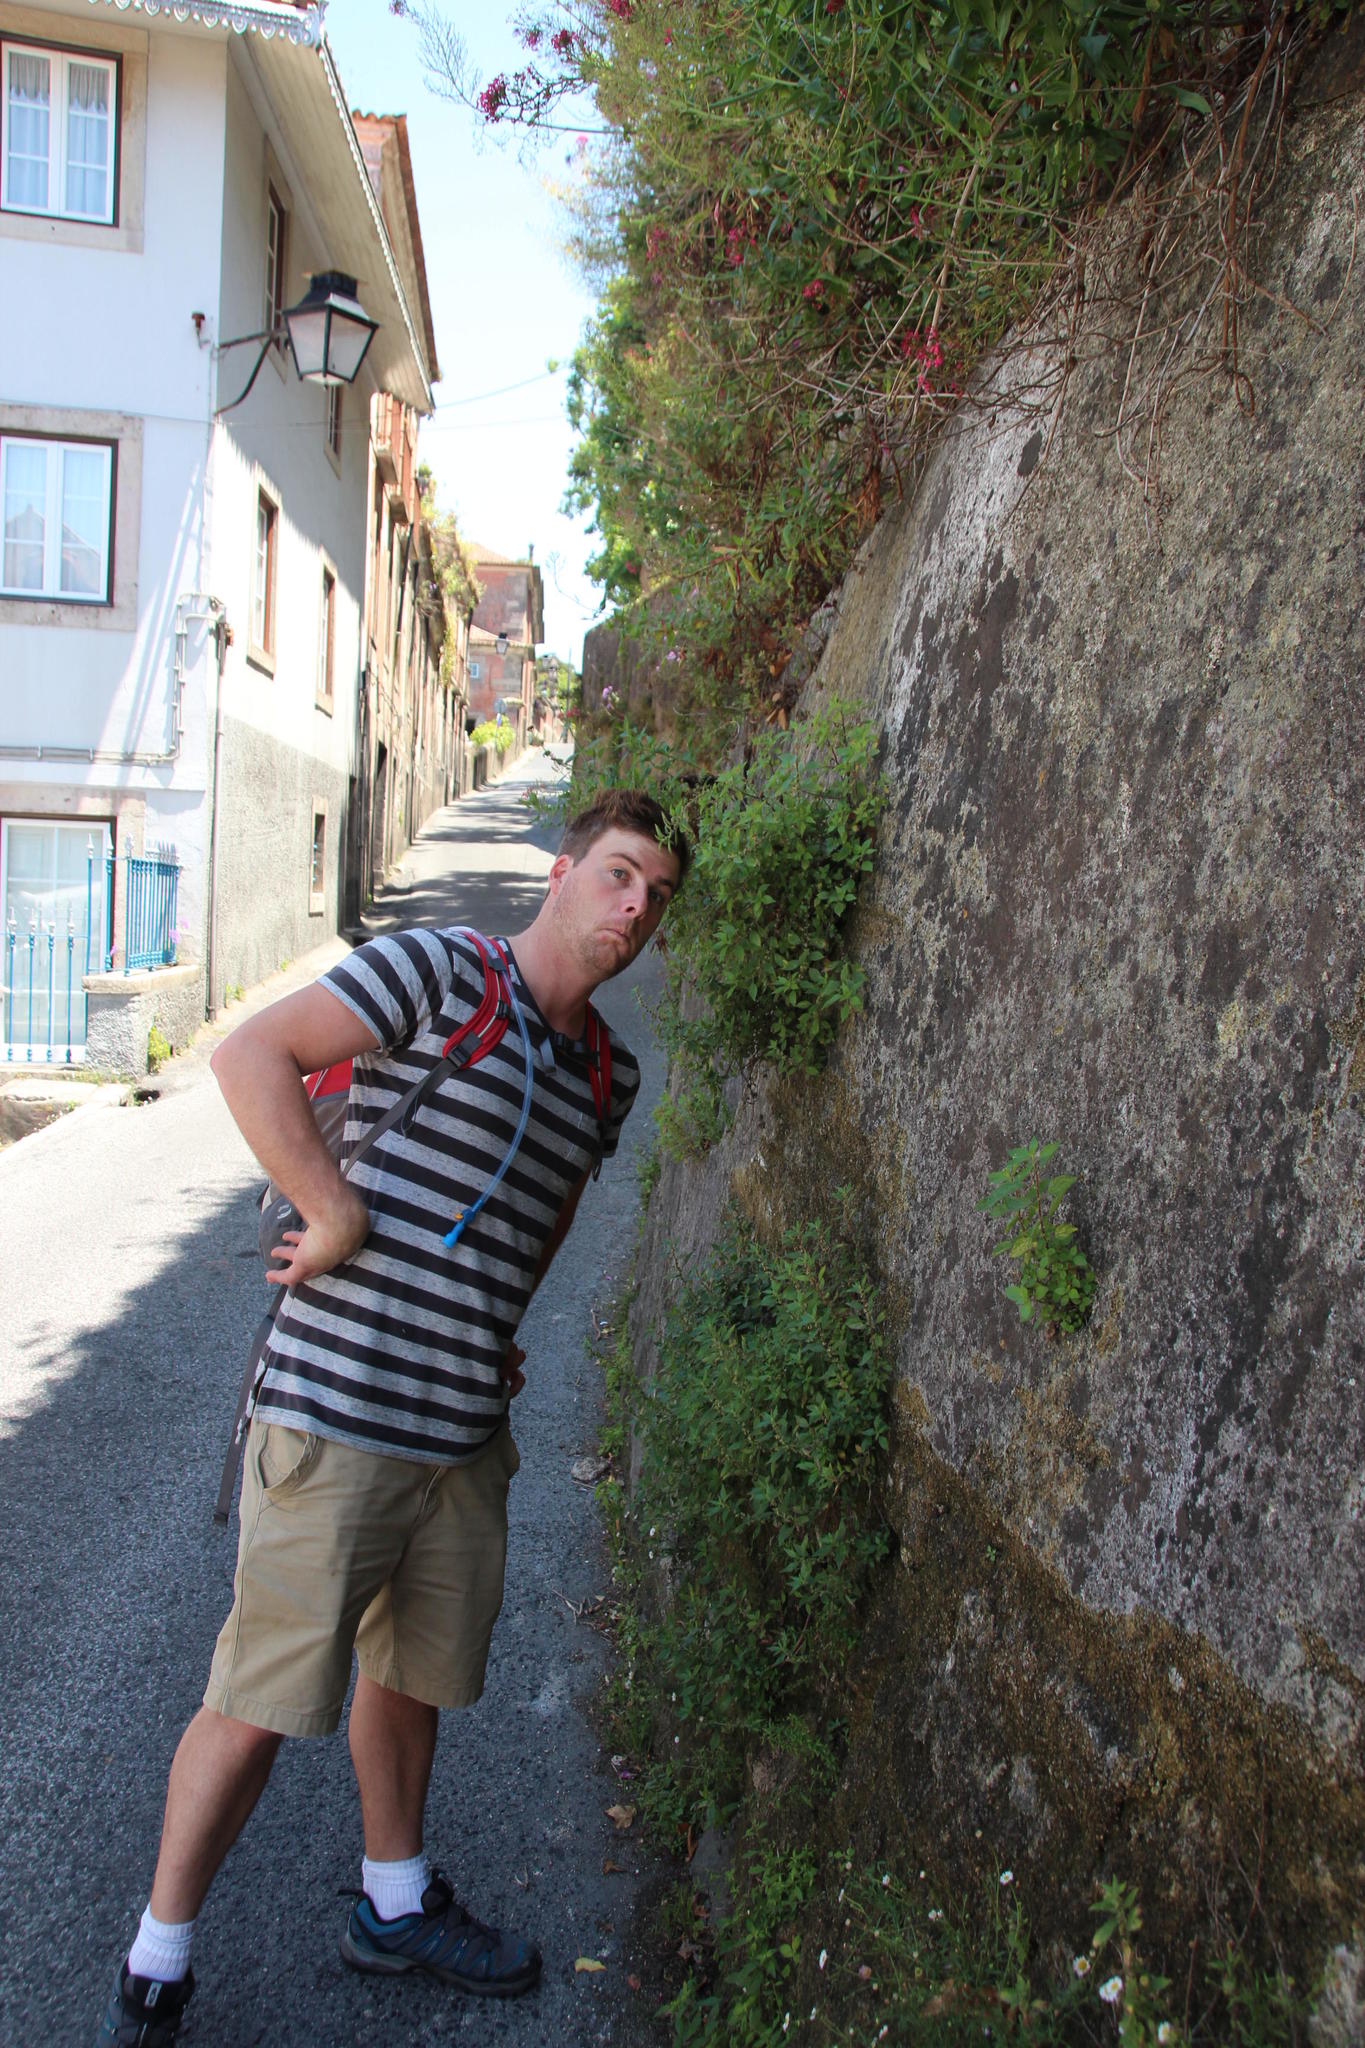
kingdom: Plantae
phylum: Tracheophyta
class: Magnoliopsida
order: Rosales
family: Urticaceae
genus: Parietaria
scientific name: Parietaria judaica
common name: Pellitory-of-the-wall
